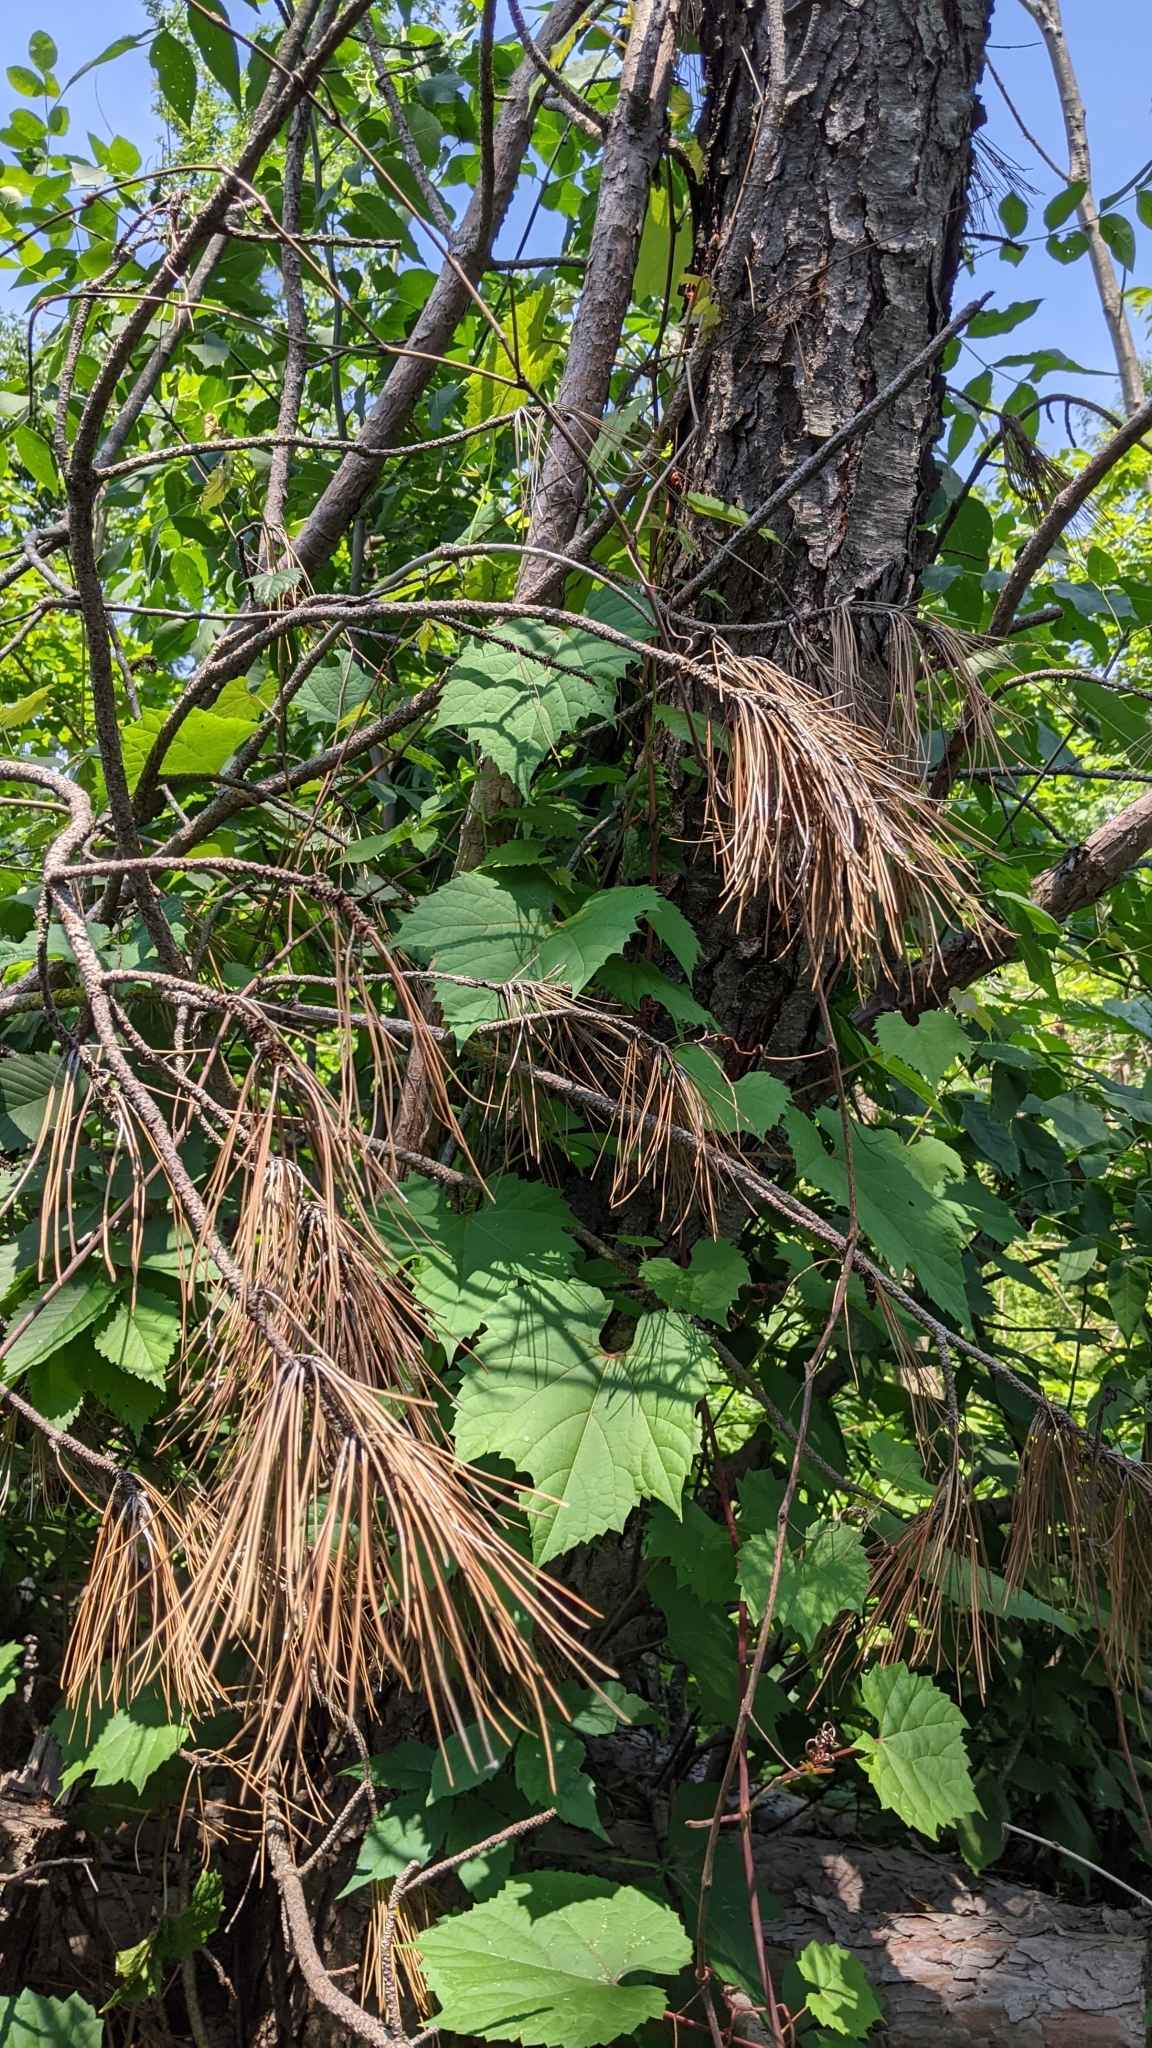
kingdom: Plantae
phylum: Tracheophyta
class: Magnoliopsida
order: Vitales
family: Vitaceae
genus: Vitis
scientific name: Vitis riparia
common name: Frost grape
